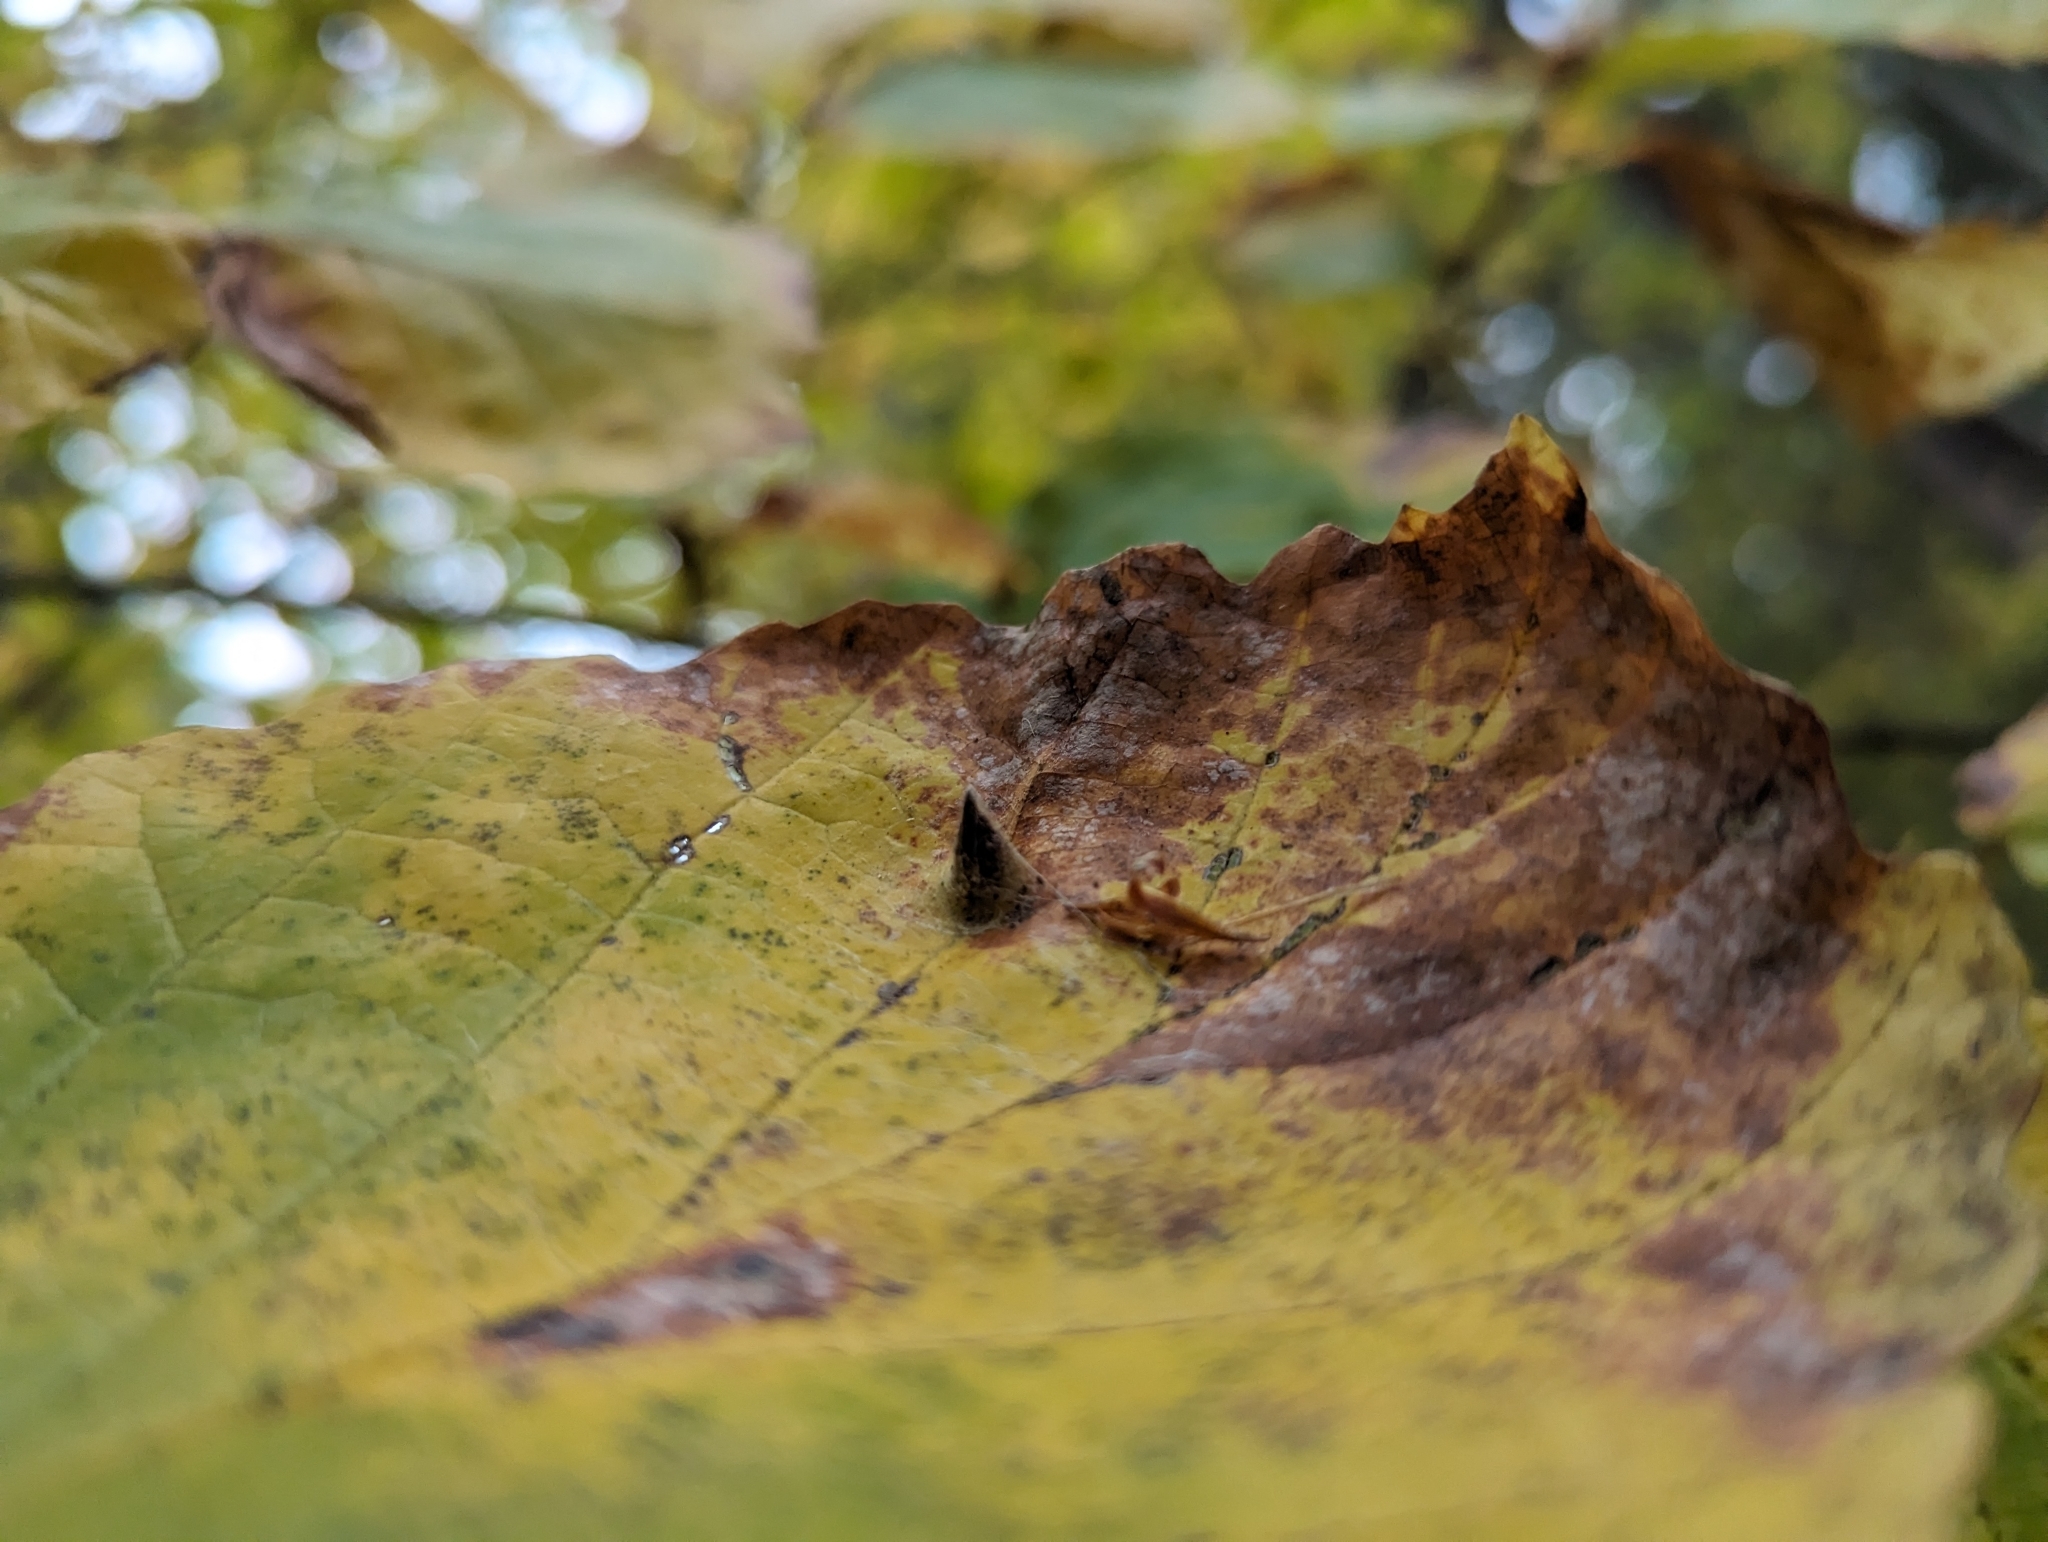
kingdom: Animalia
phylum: Arthropoda
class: Insecta
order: Hemiptera
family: Aphididae
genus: Hormaphis
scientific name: Hormaphis hamamelidis
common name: Witch-hazel cone gall aphid
